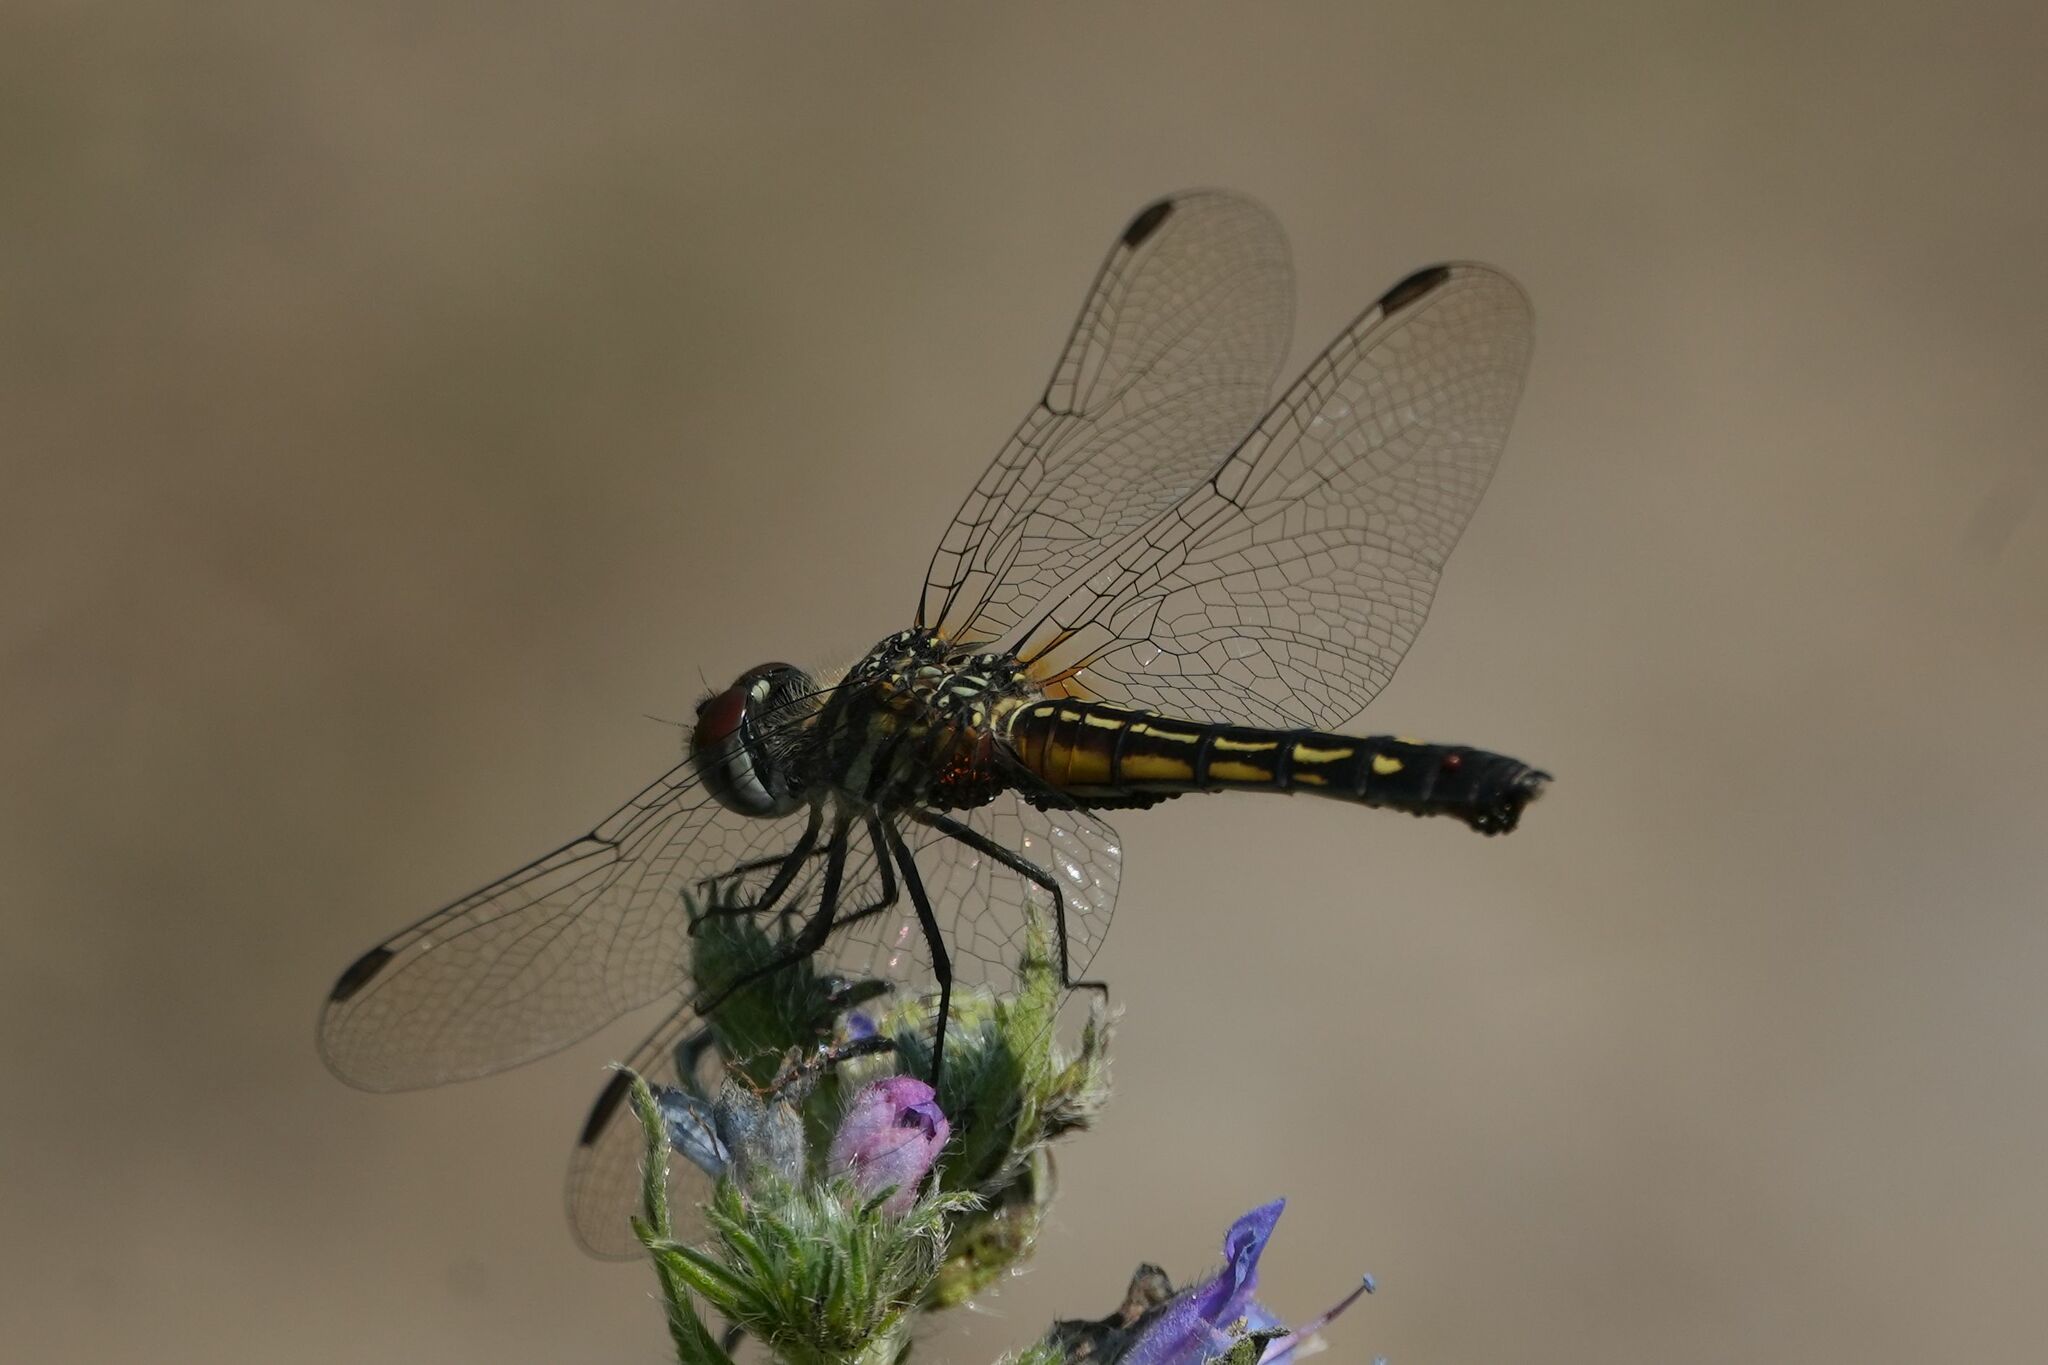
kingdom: Animalia
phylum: Arthropoda
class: Insecta
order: Odonata
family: Libellulidae
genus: Pachydiplax
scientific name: Pachydiplax longipennis
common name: Blue dasher
